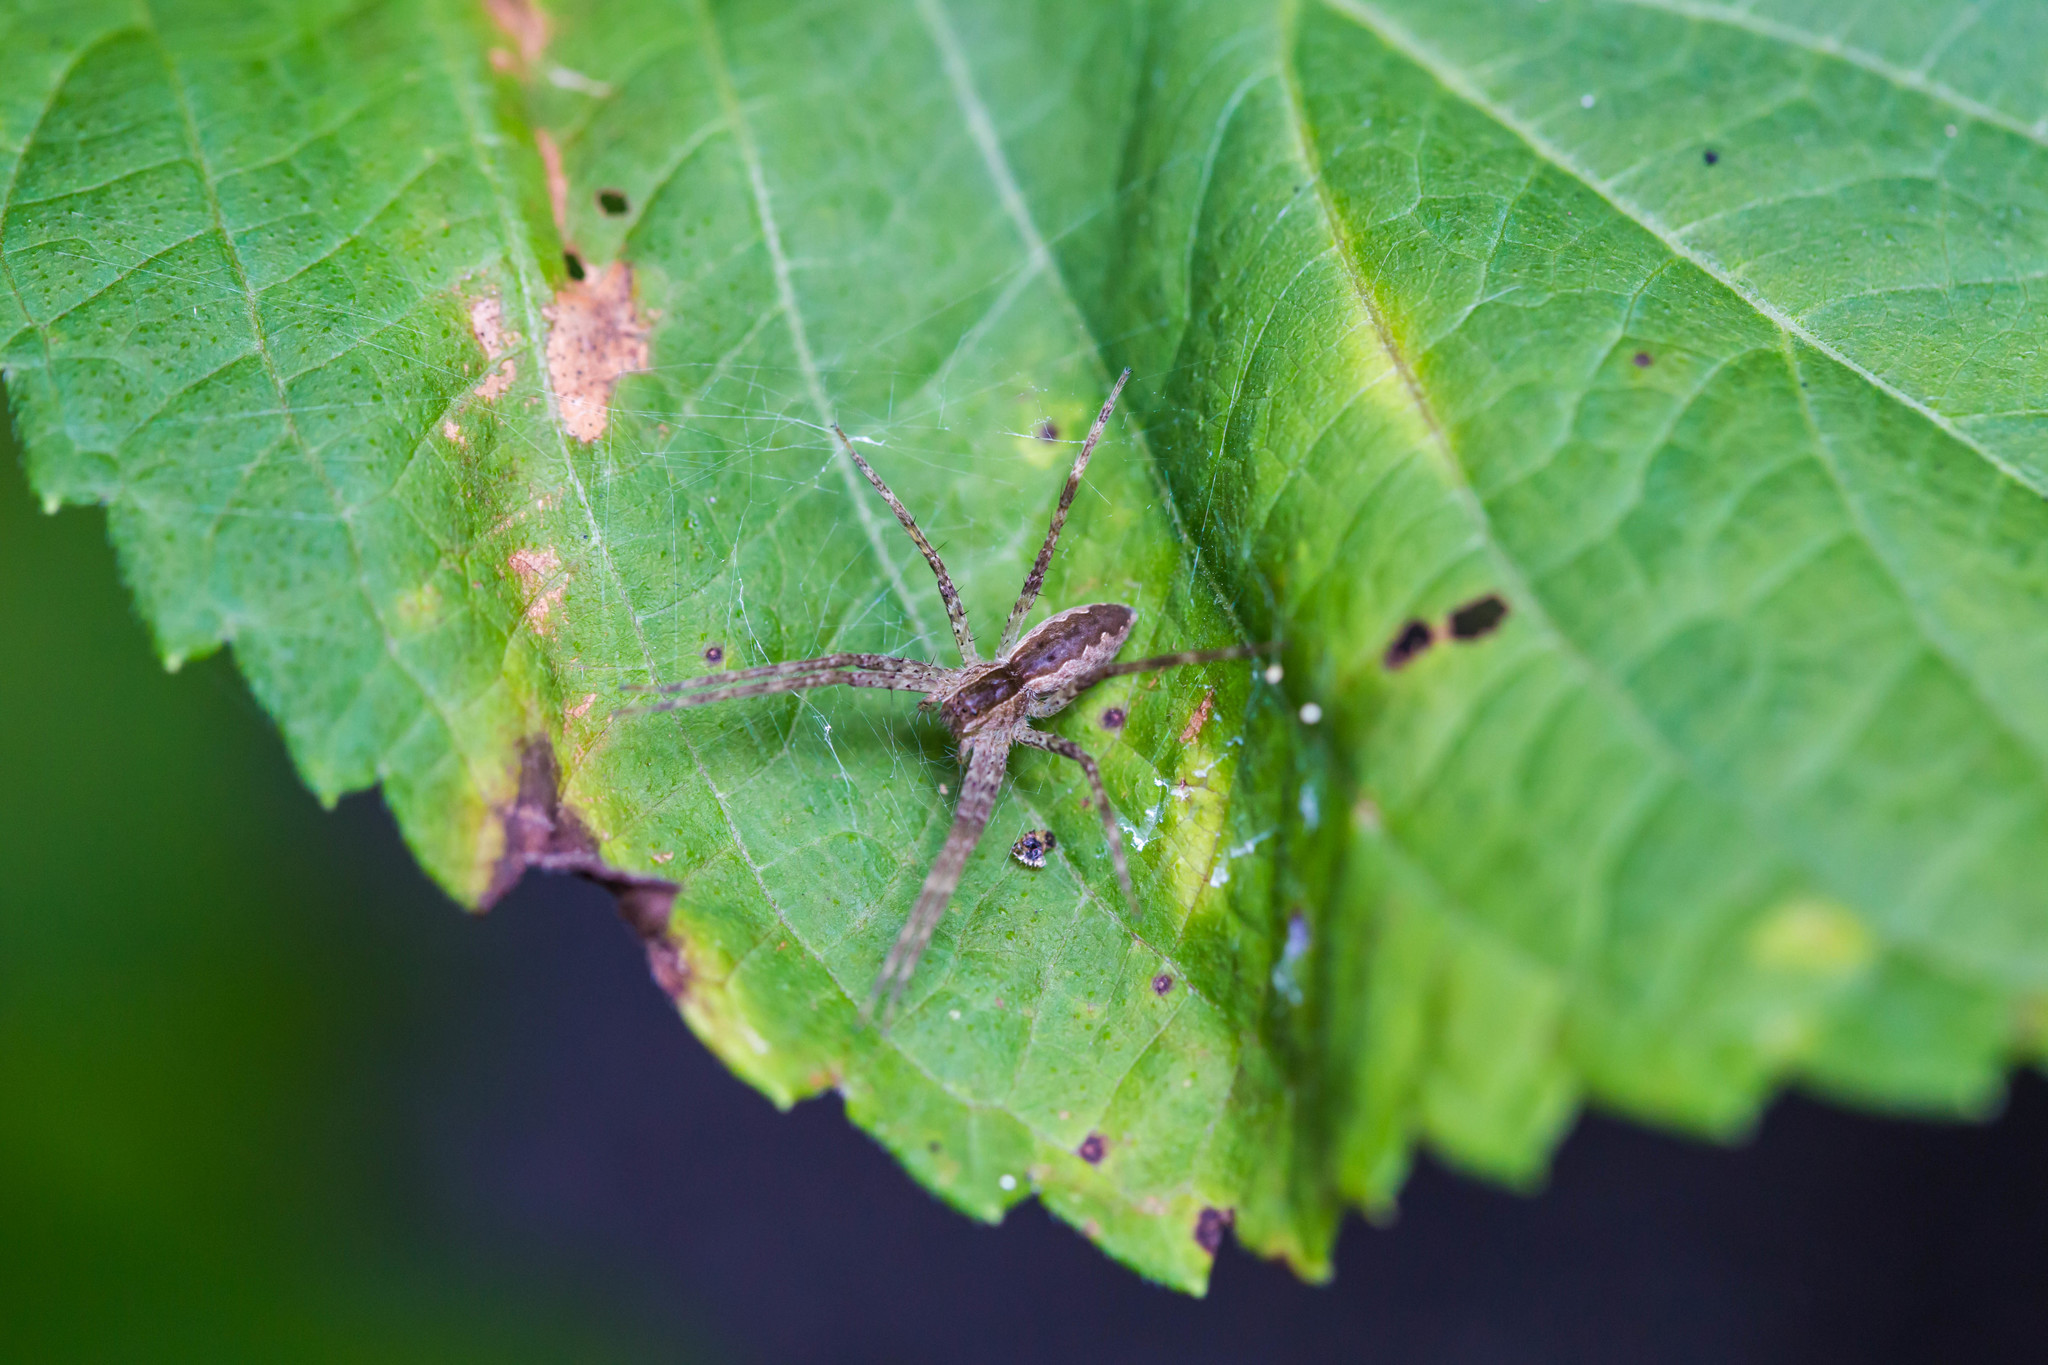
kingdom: Animalia
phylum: Arthropoda
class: Arachnida
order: Araneae
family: Pisauridae
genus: Pisaurina
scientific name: Pisaurina mira
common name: American nursery web spider
